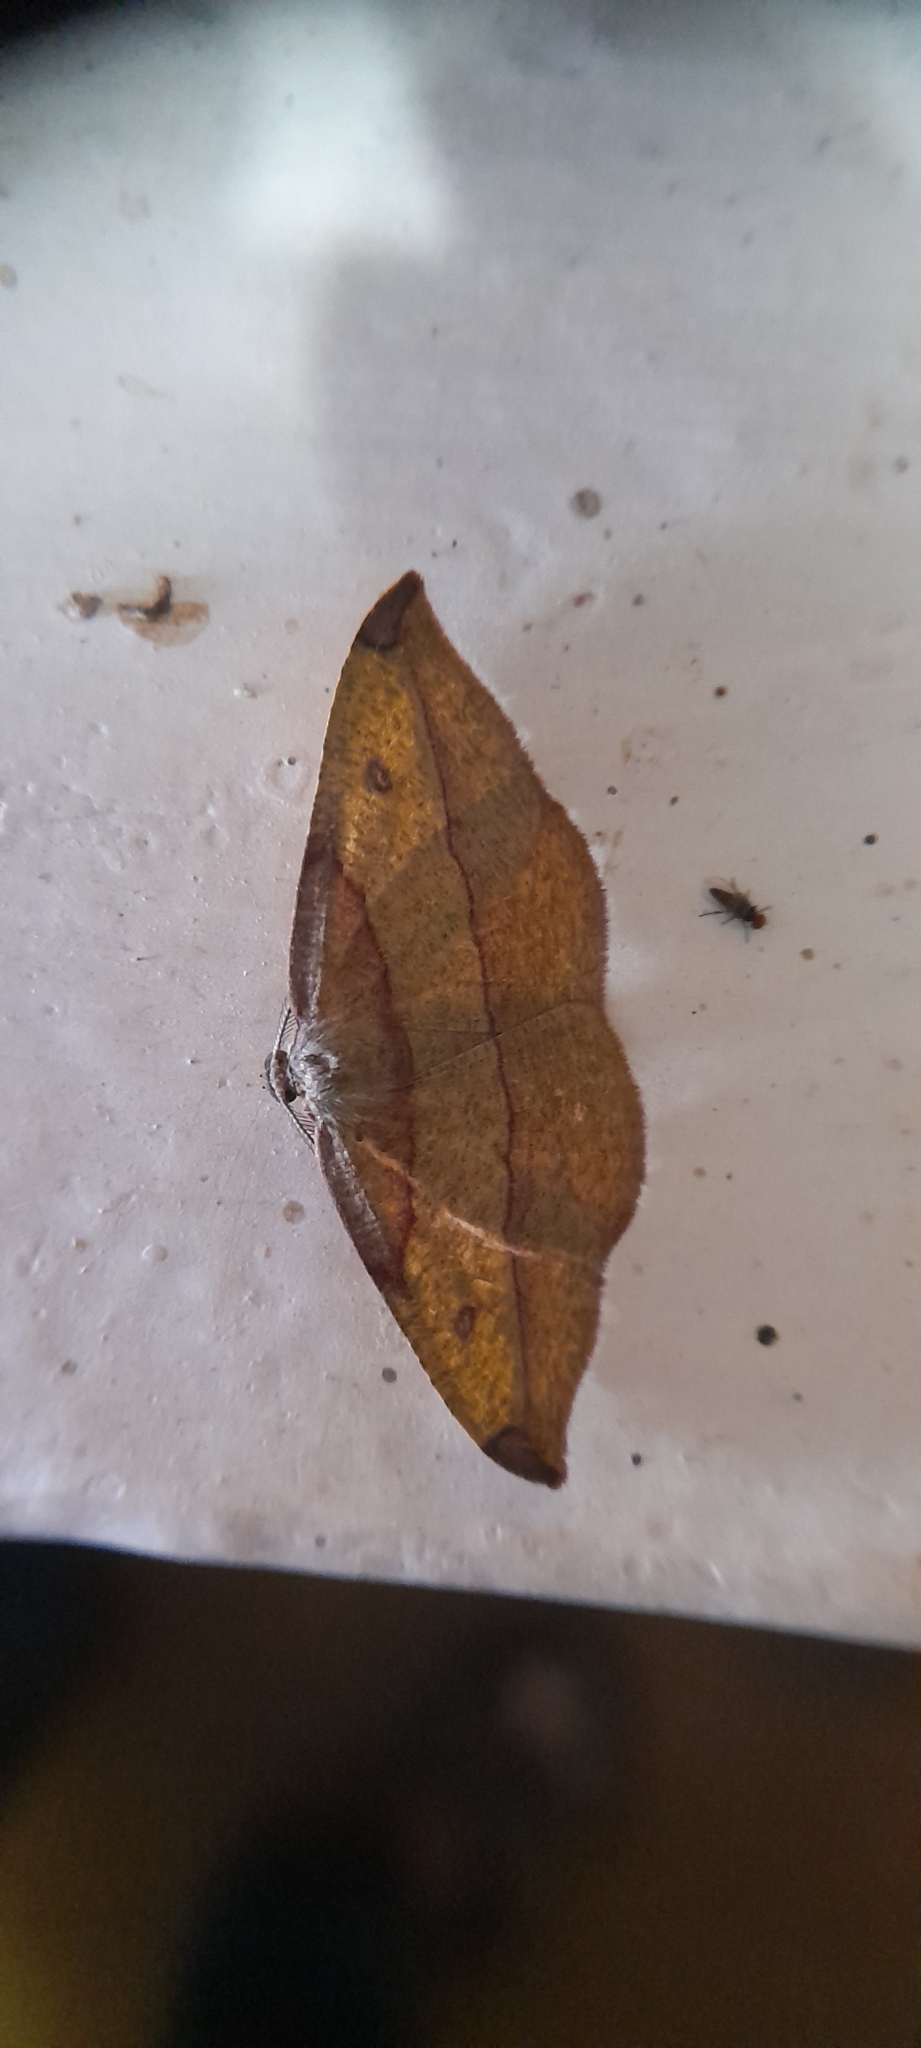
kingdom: Animalia
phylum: Arthropoda
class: Insecta
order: Lepidoptera
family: Geometridae
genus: Hypochrosis
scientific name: Hypochrosis hyadaria
